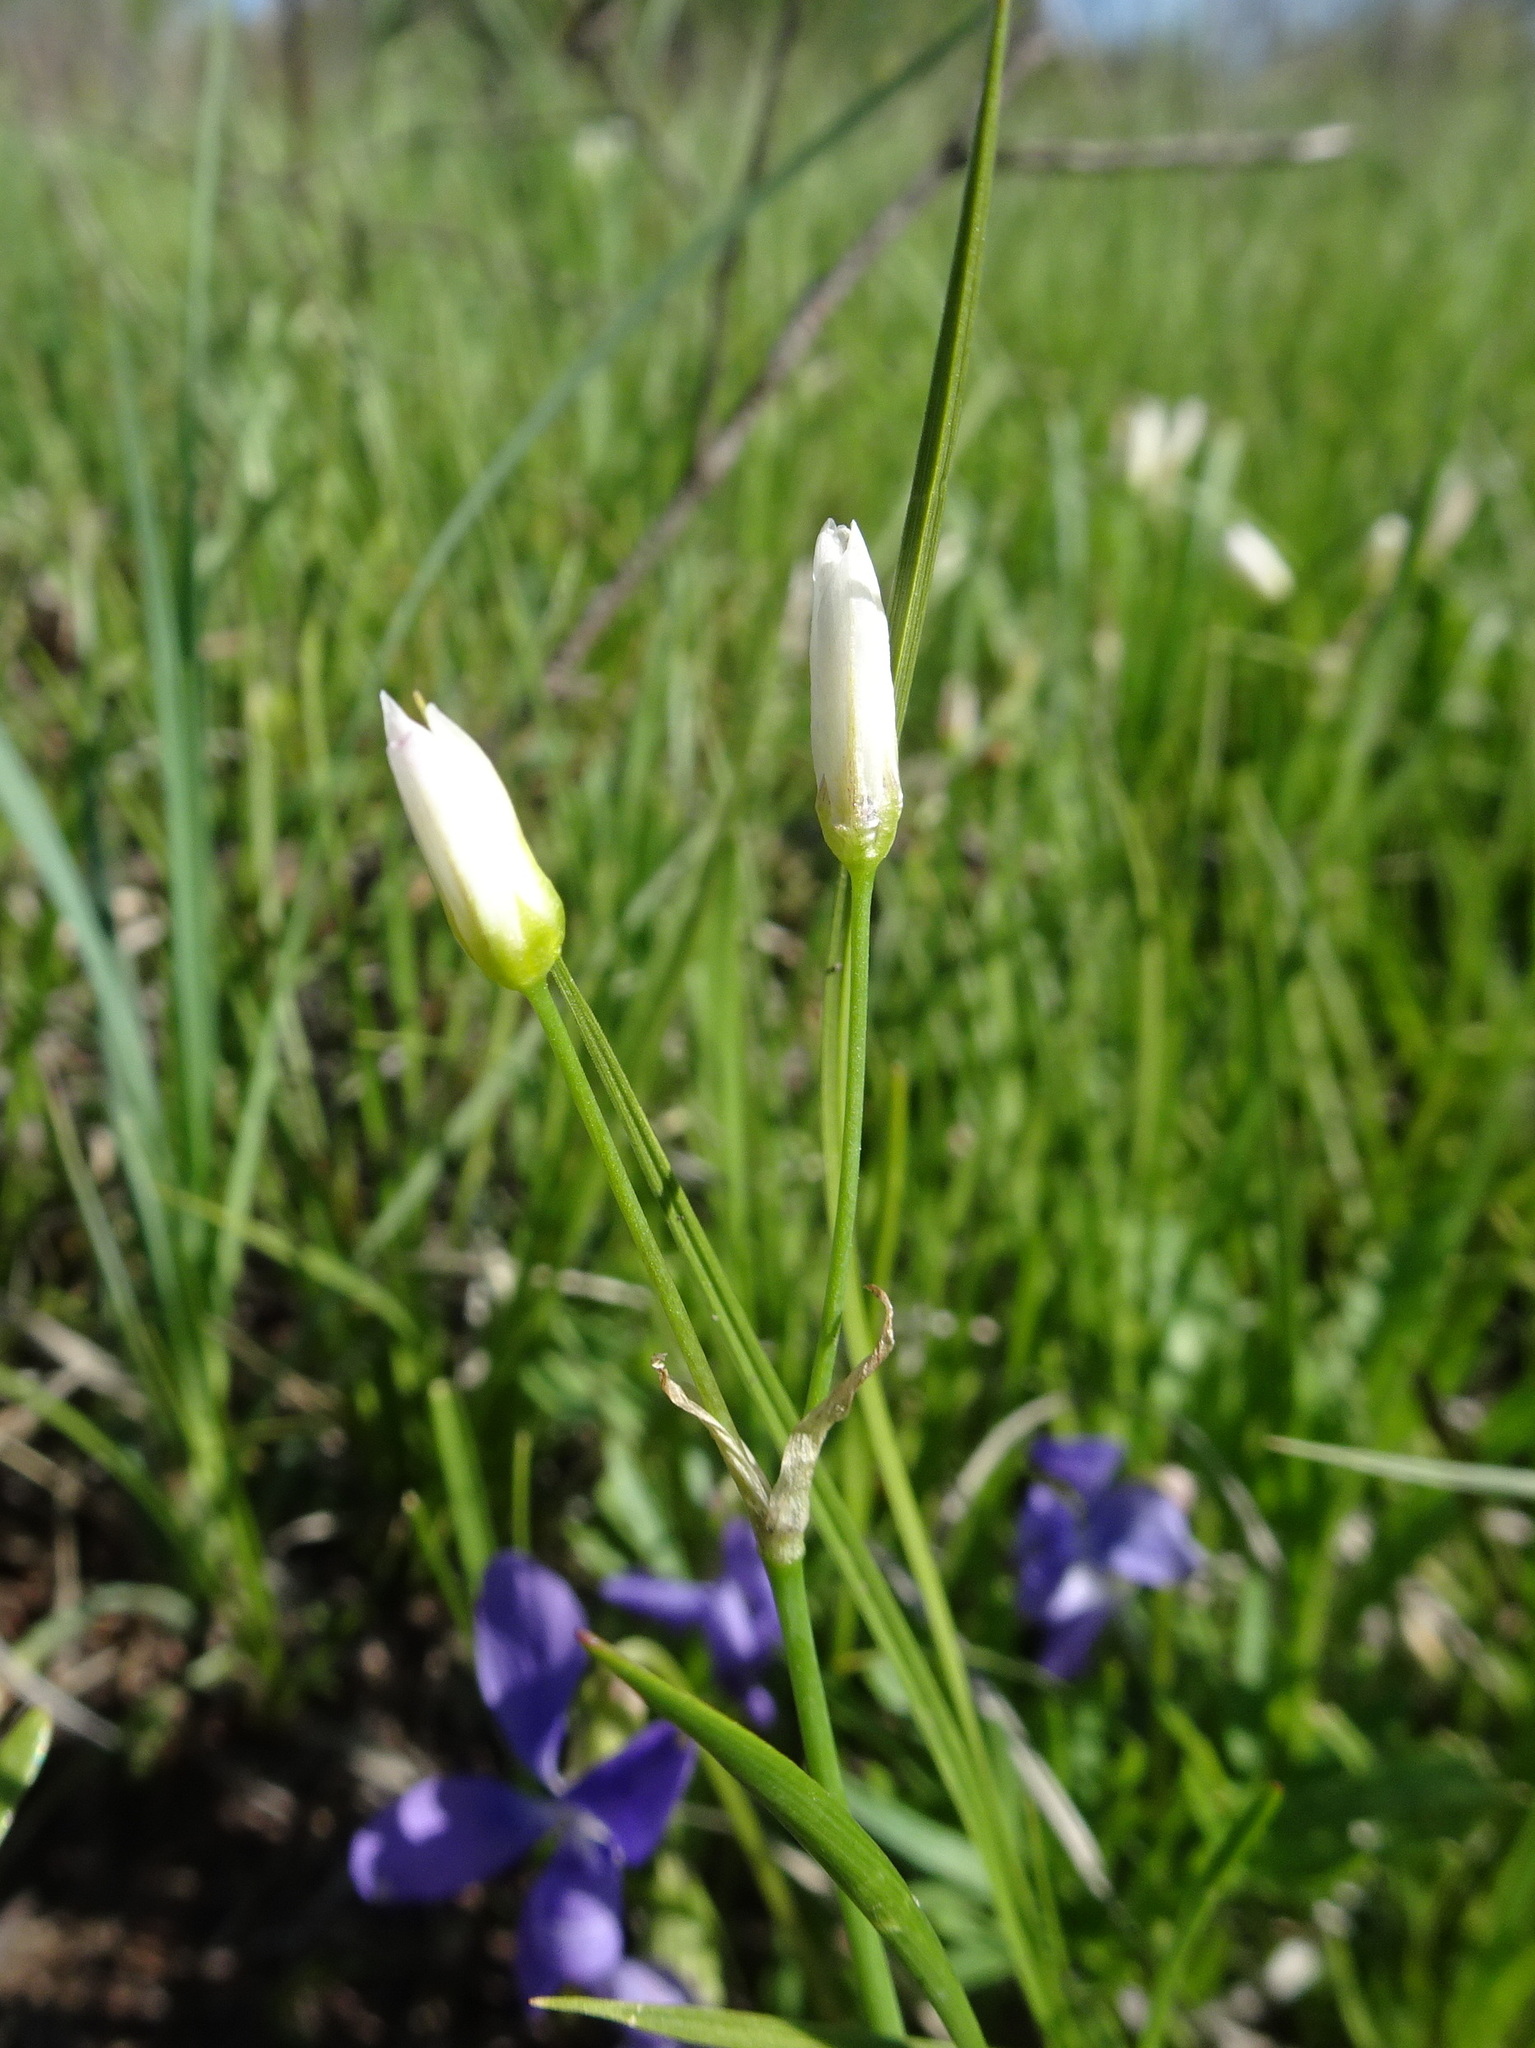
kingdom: Plantae
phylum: Tracheophyta
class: Liliopsida
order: Asparagales
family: Amaryllidaceae
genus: Nothoscordum
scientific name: Nothoscordum bivalve
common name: Crow-poison
